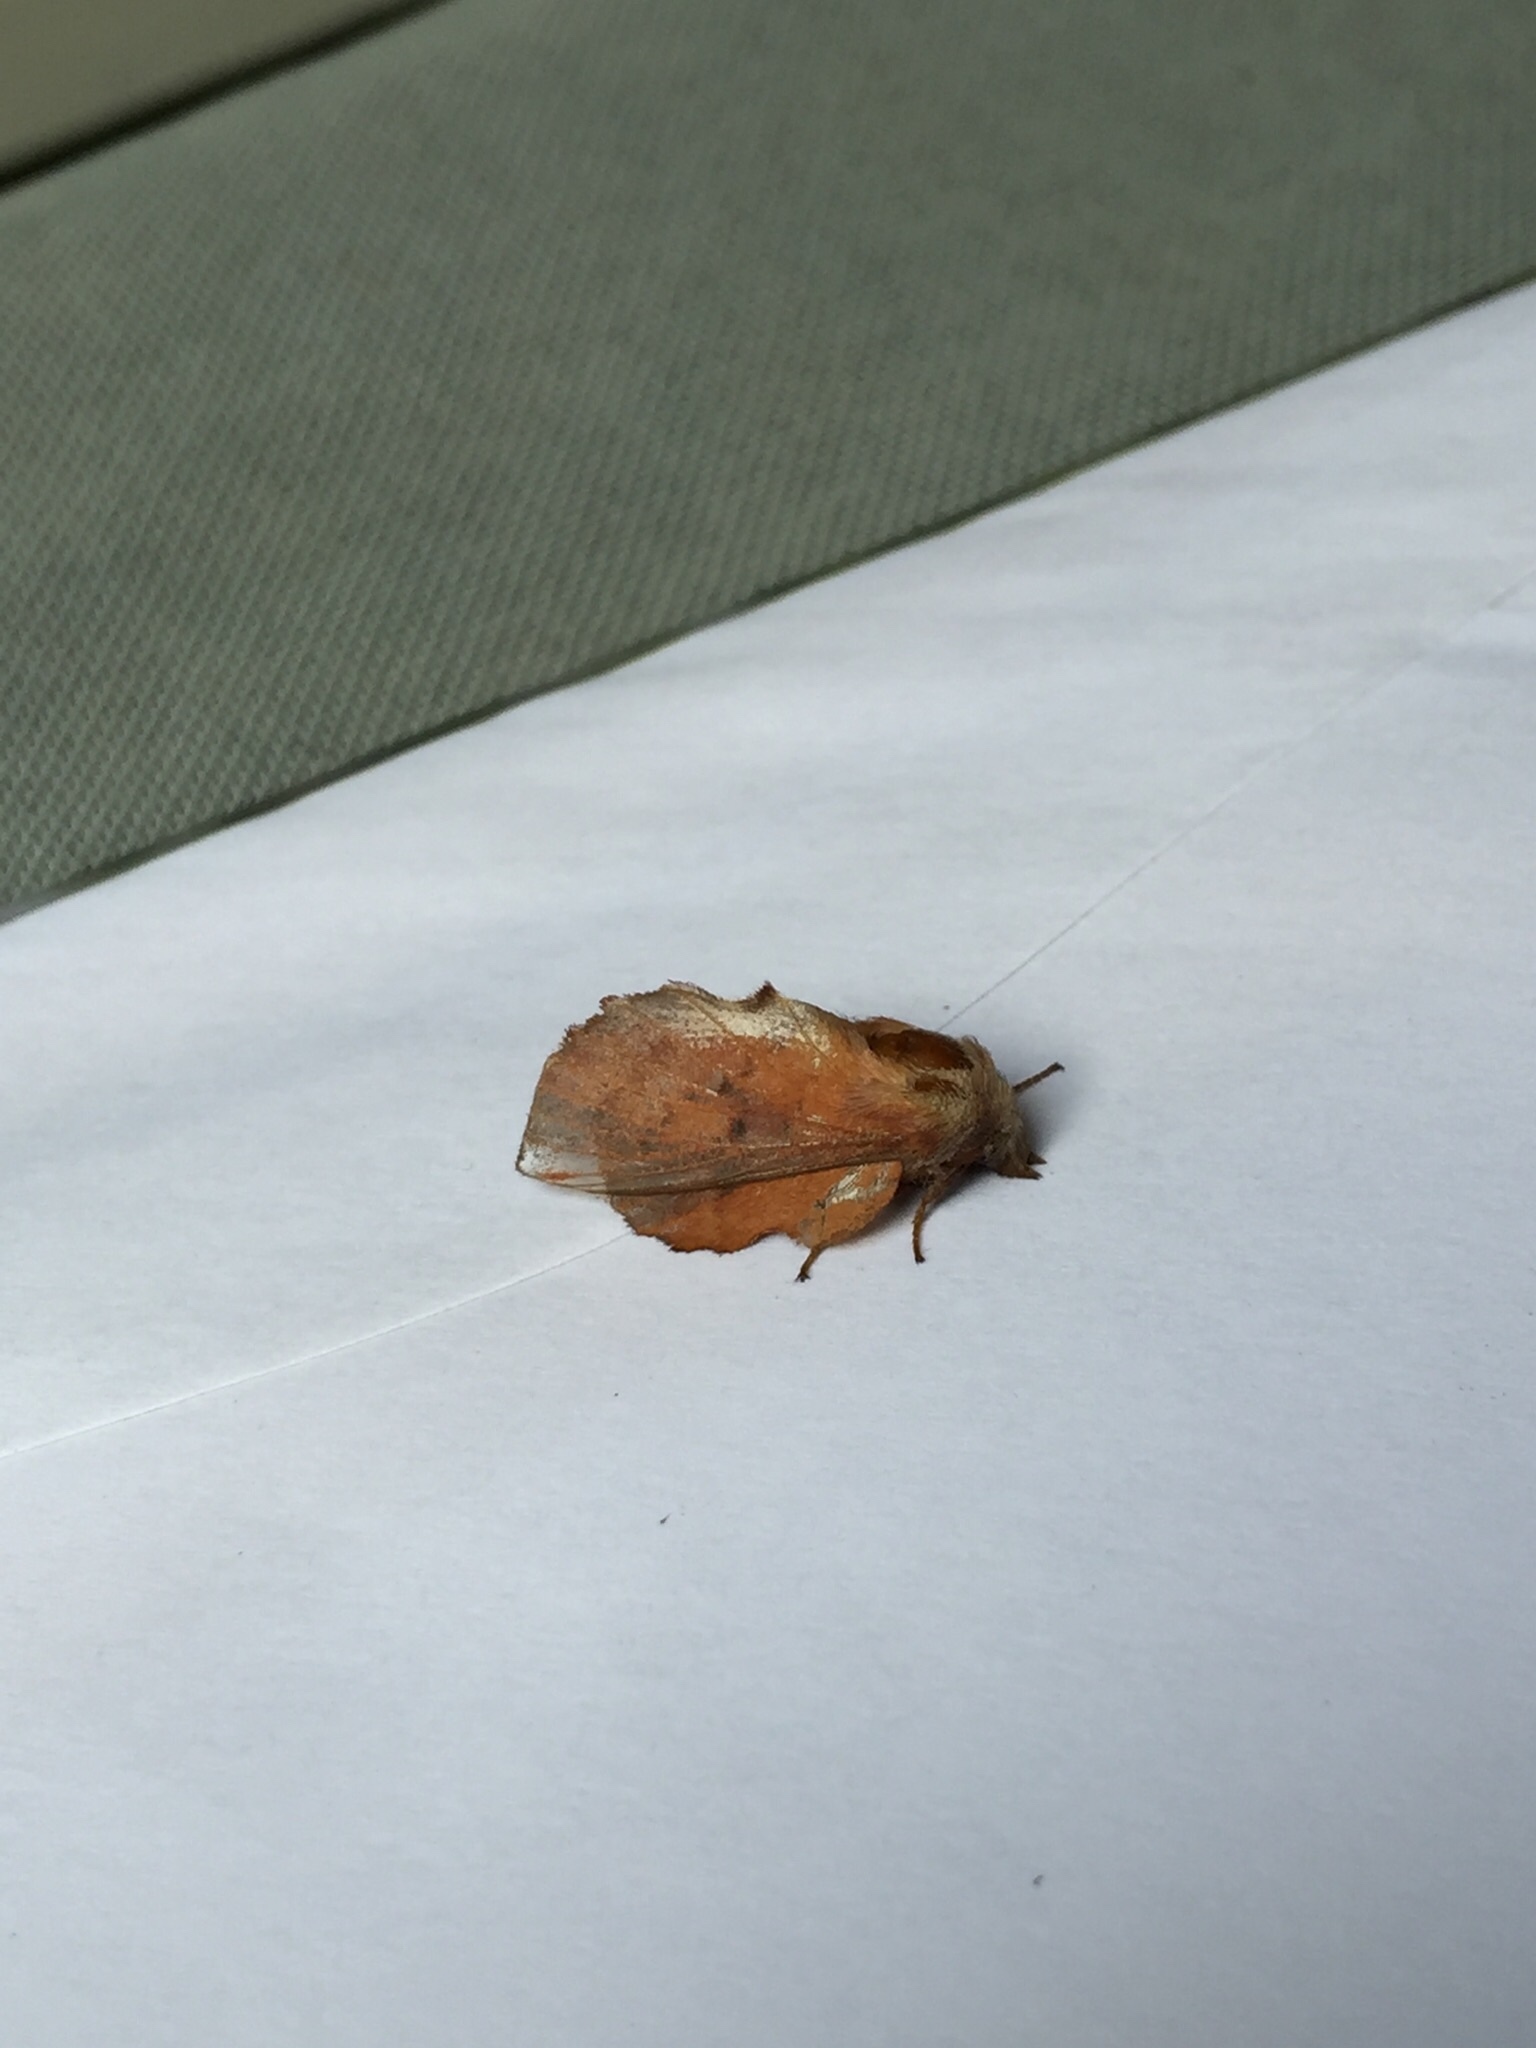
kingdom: Animalia
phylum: Arthropoda
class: Insecta
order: Lepidoptera
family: Lasiocampidae
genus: Phyllodesma
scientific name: Phyllodesma americana
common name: American lappet moth
